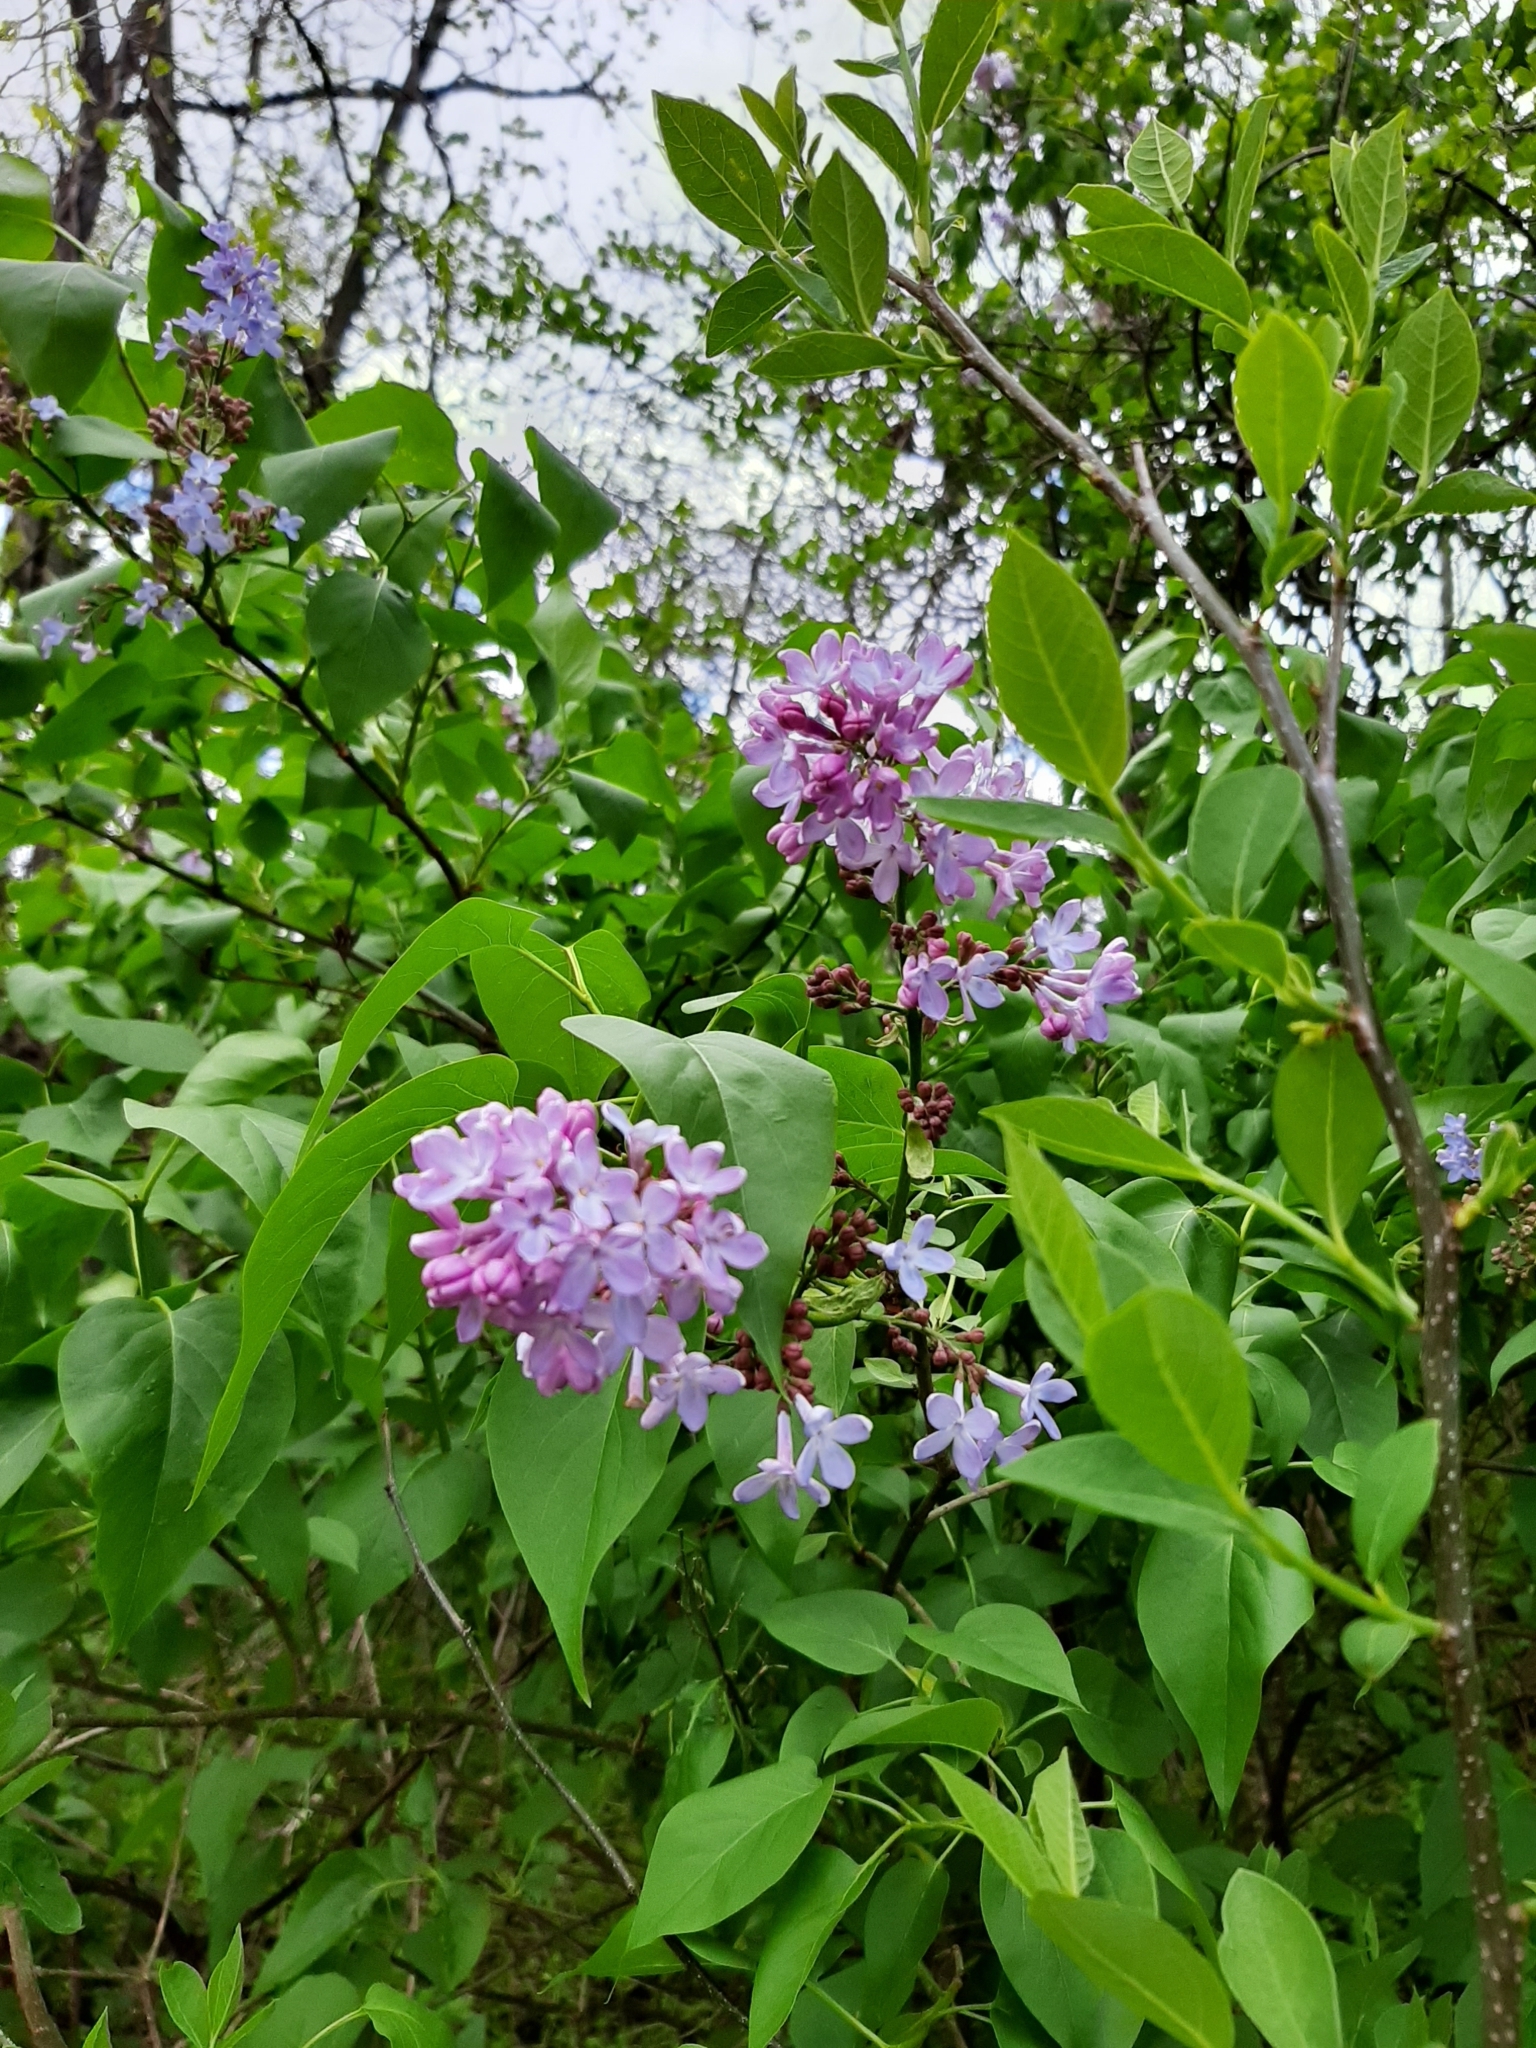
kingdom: Plantae
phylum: Tracheophyta
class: Magnoliopsida
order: Lamiales
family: Oleaceae
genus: Syringa
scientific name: Syringa vulgaris
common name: Common lilac
